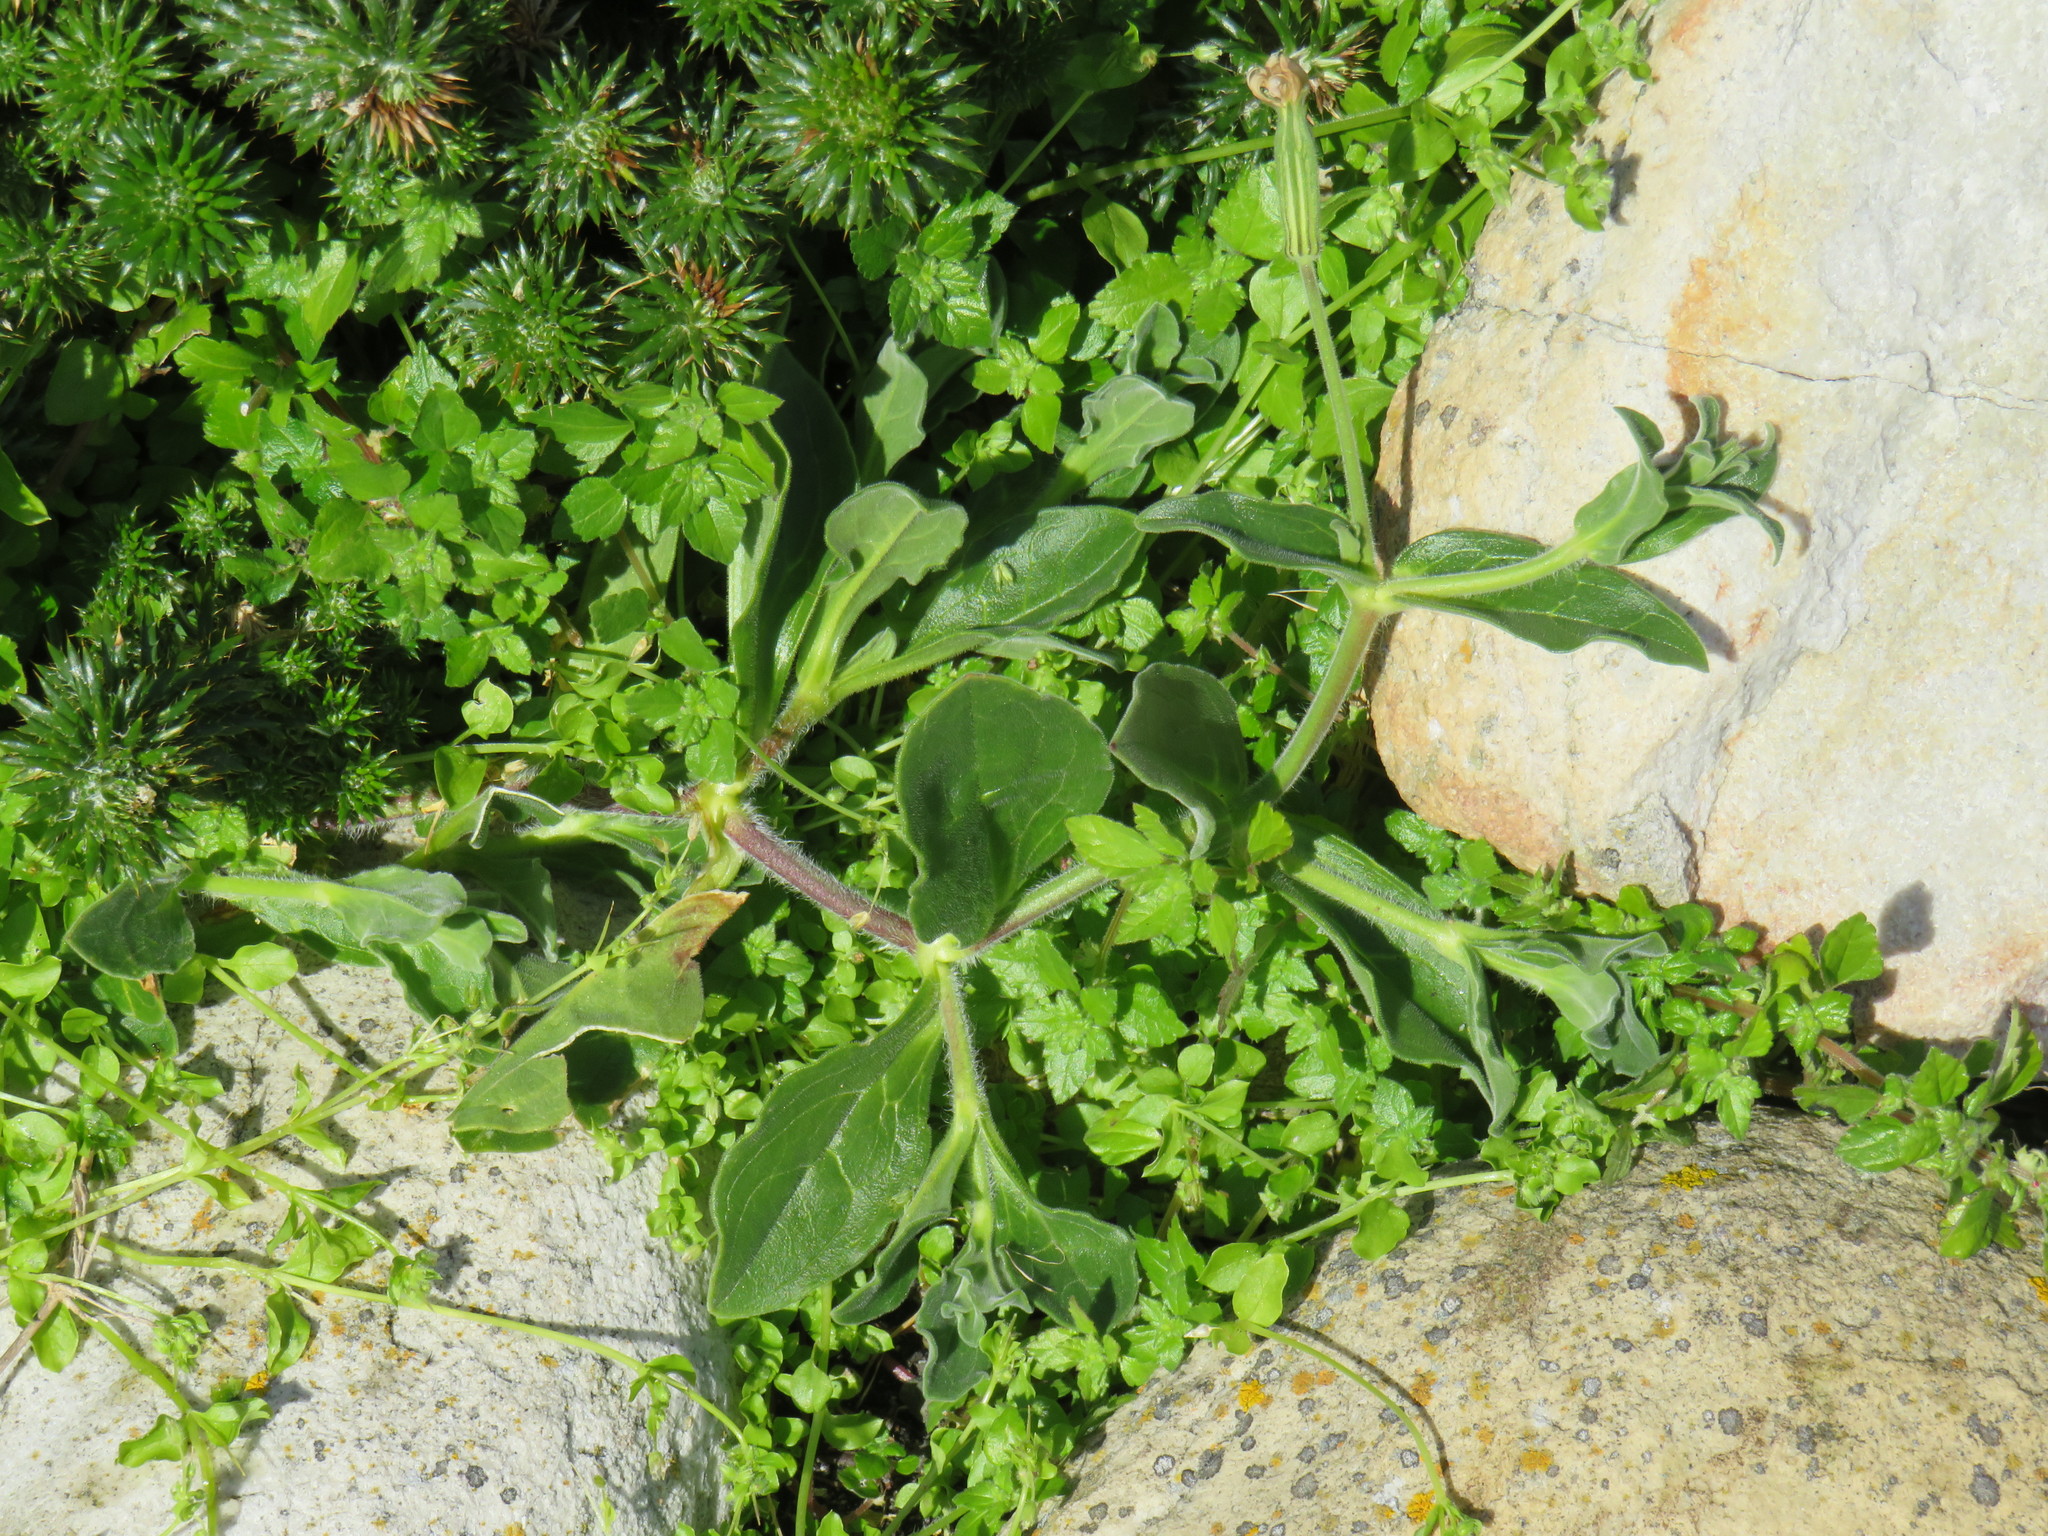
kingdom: Plantae
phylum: Tracheophyta
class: Magnoliopsida
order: Caryophyllales
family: Caryophyllaceae
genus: Silene
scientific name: Silene undulata
